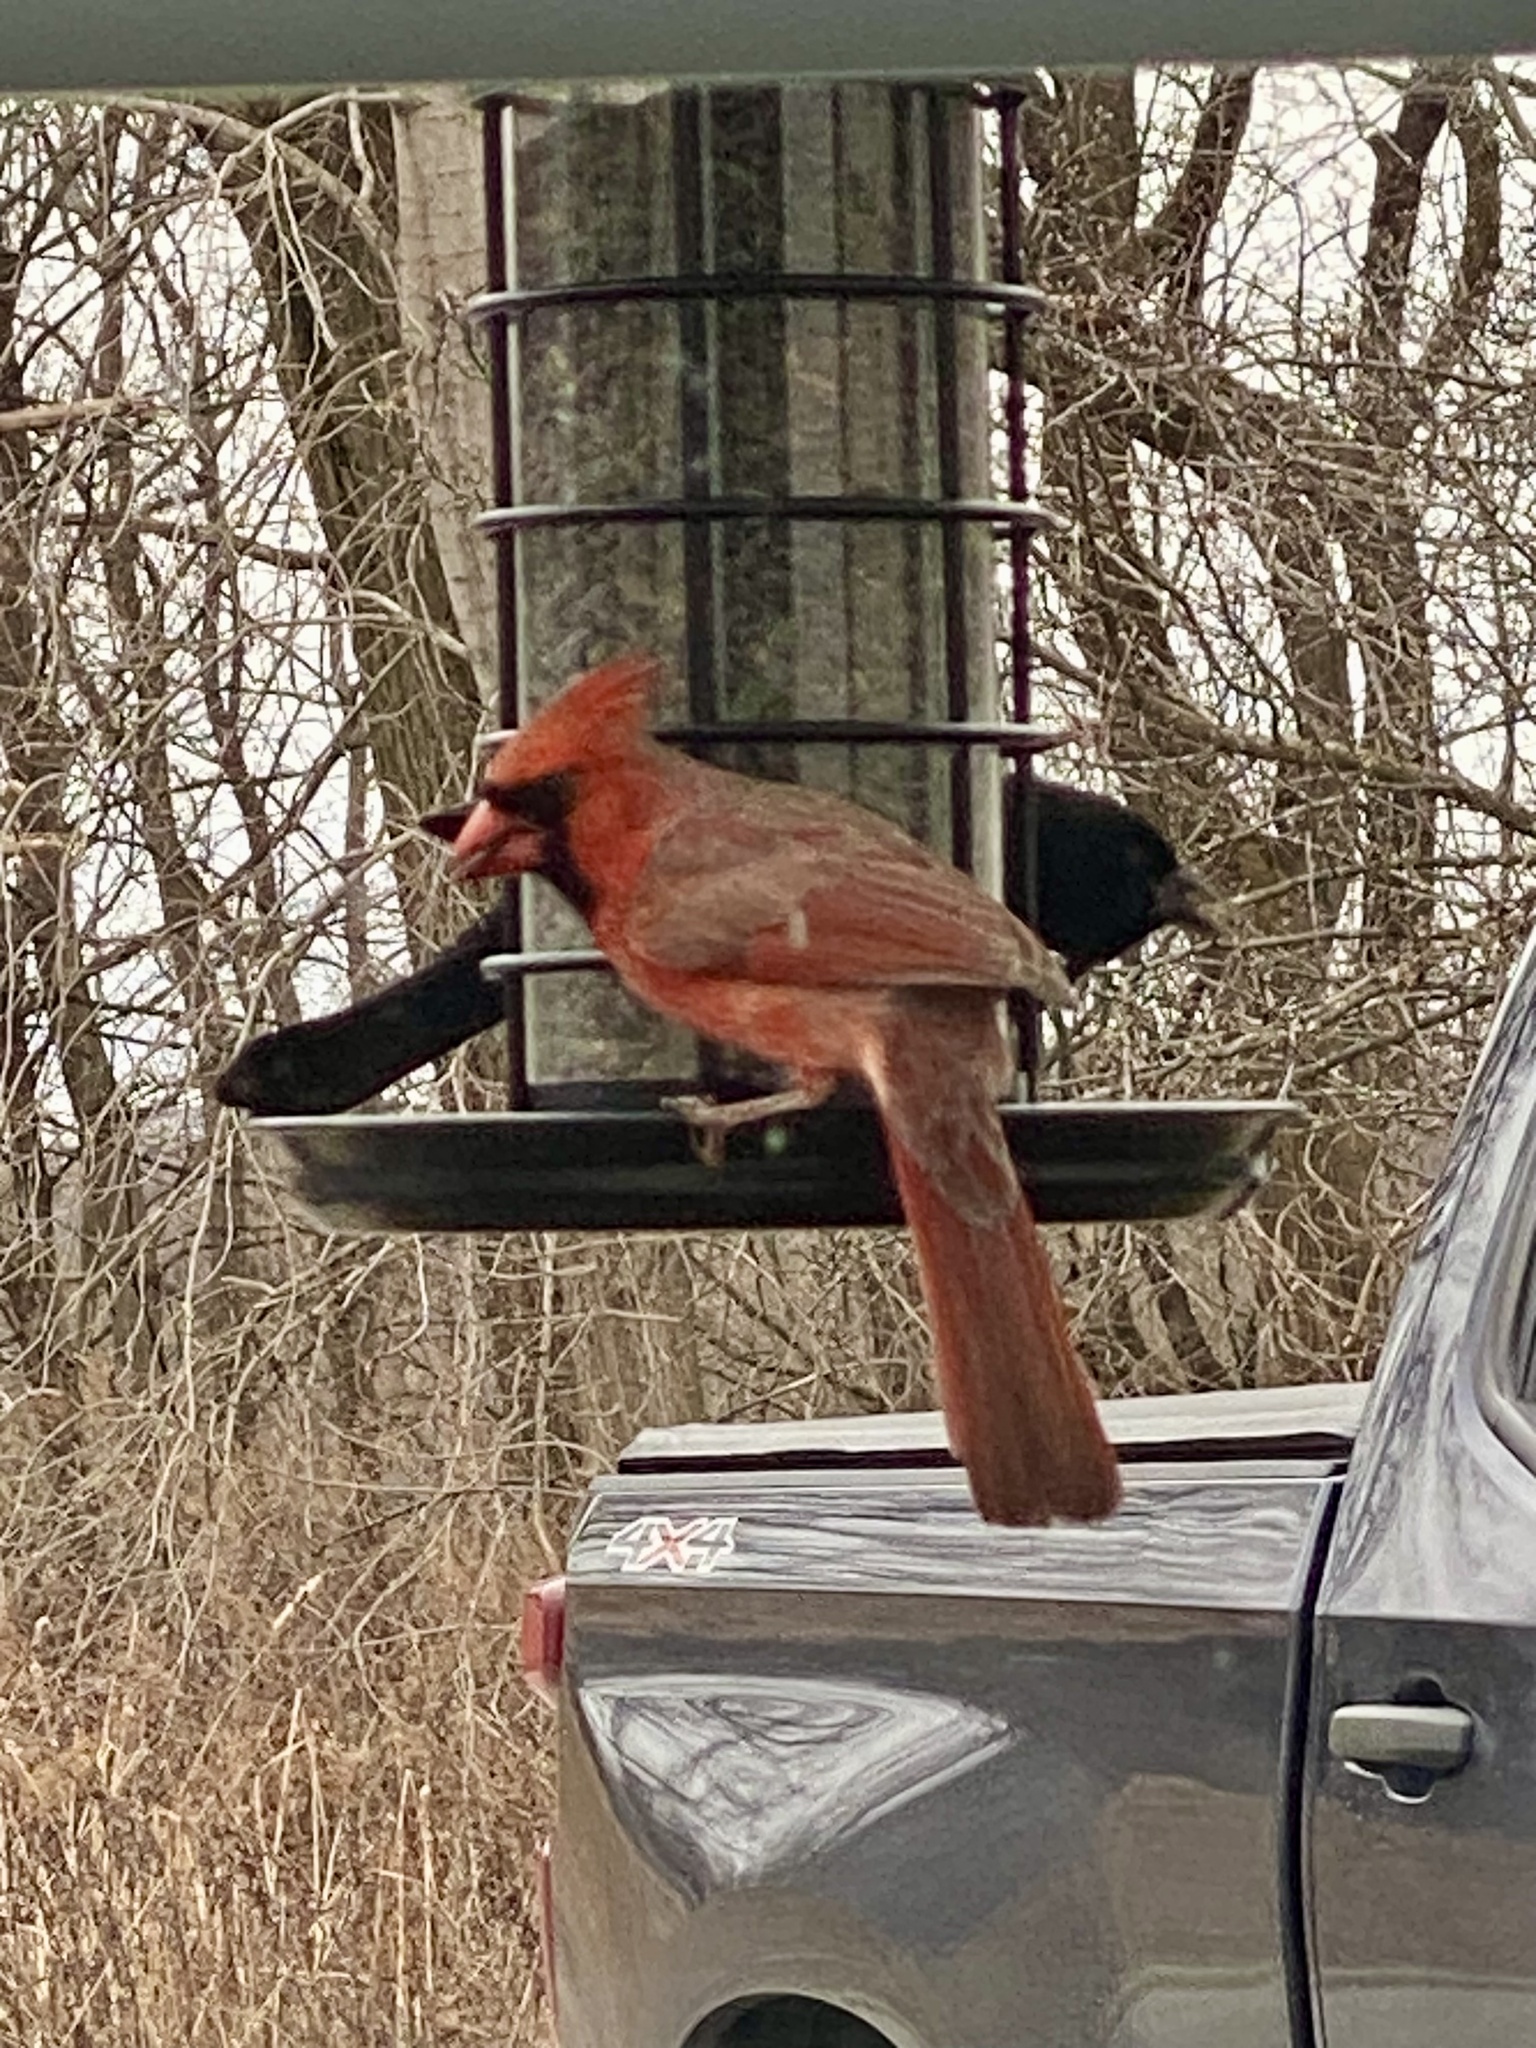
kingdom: Animalia
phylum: Chordata
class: Aves
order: Passeriformes
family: Cardinalidae
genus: Cardinalis
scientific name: Cardinalis cardinalis
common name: Northern cardinal
